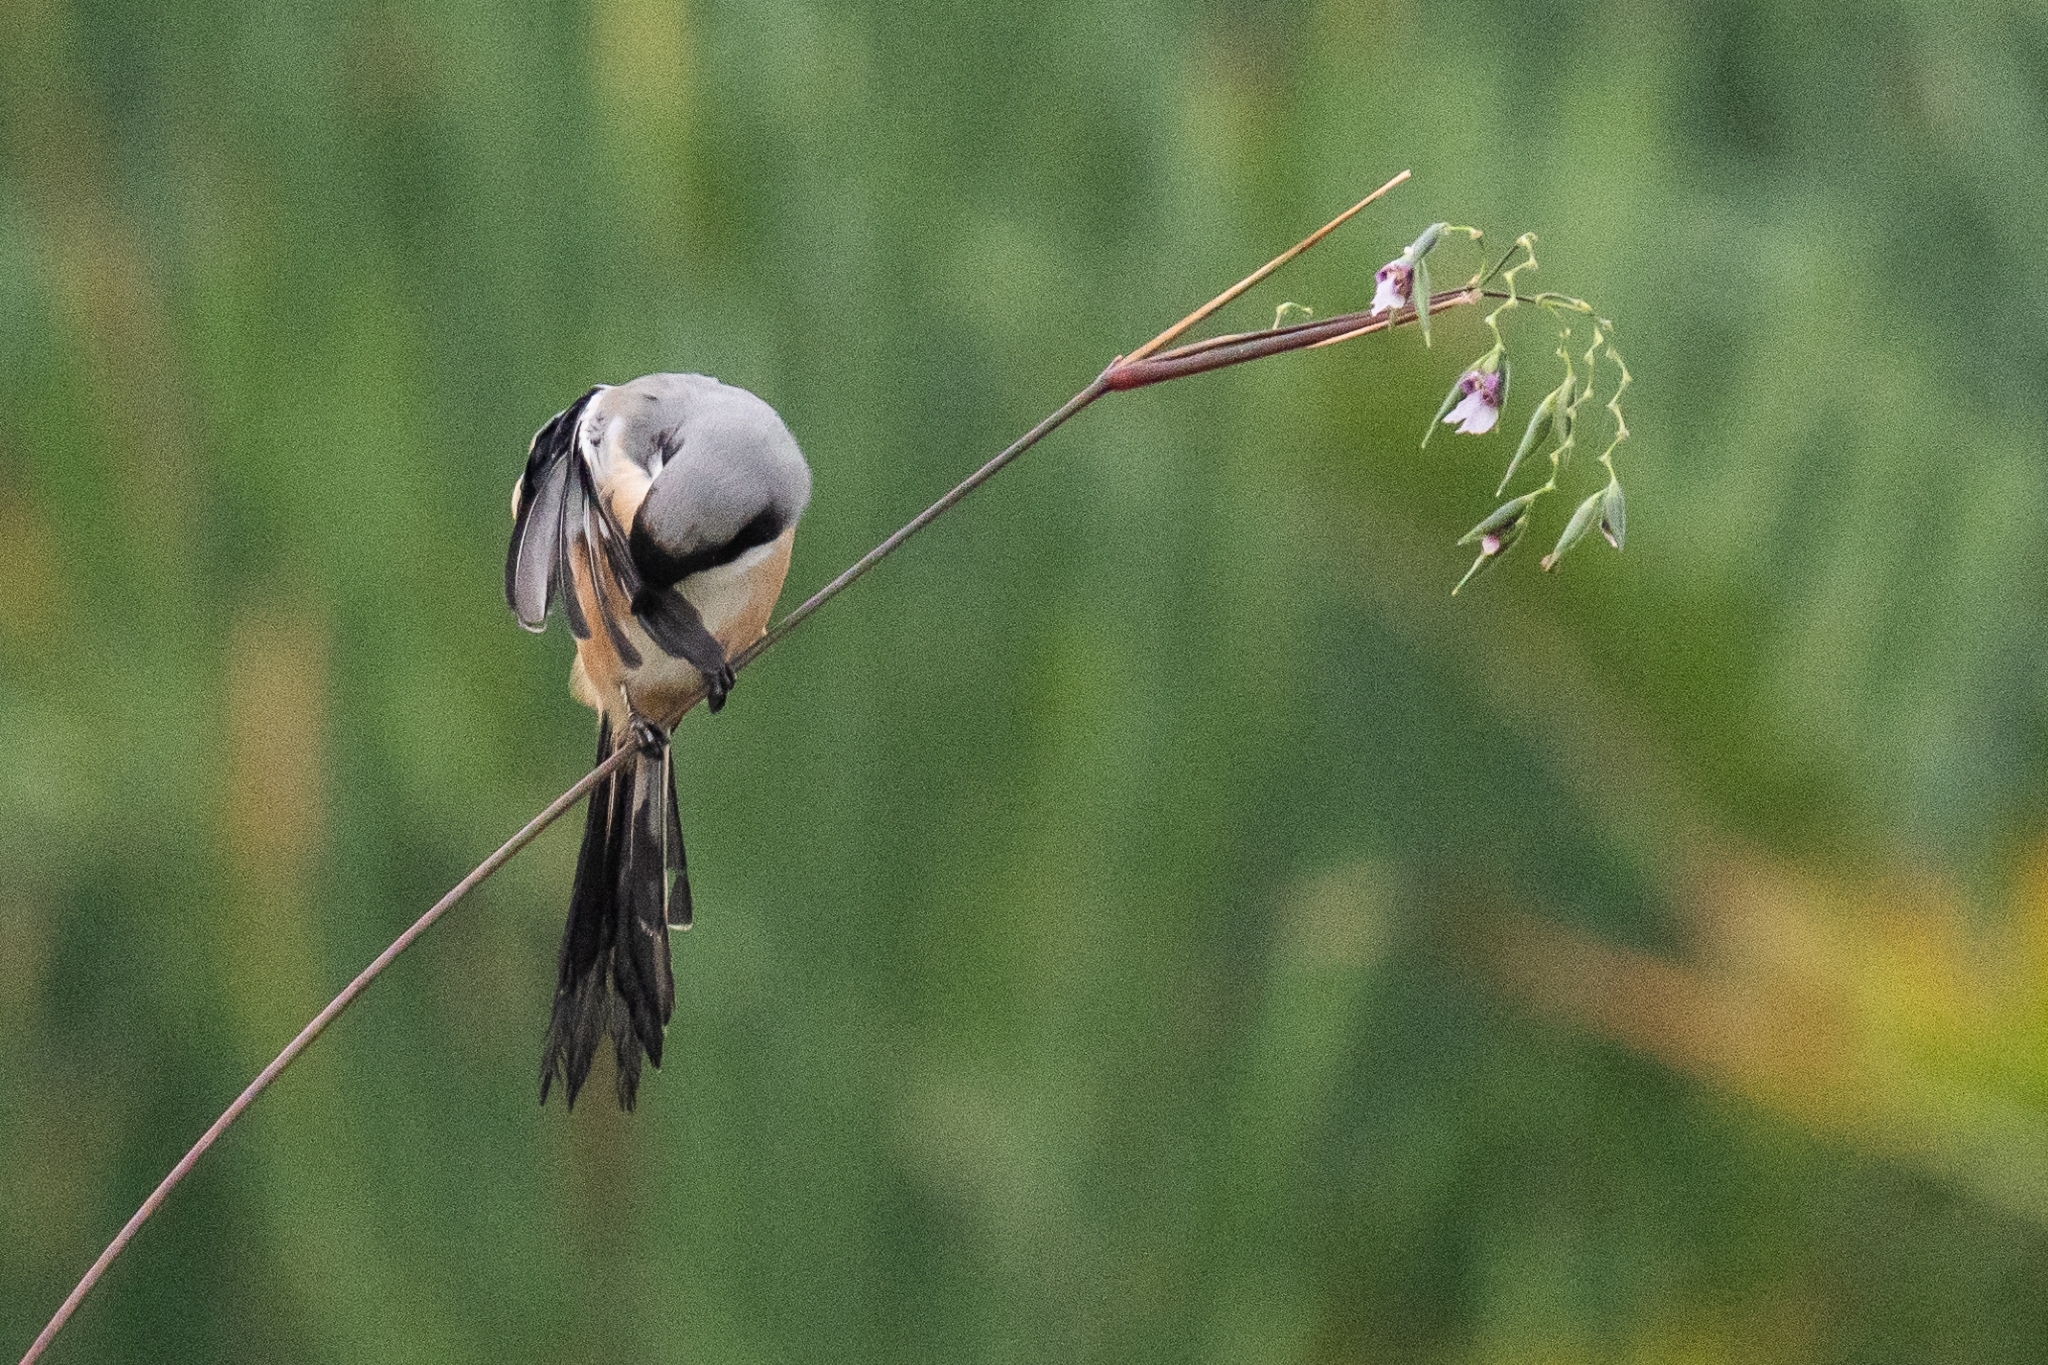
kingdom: Animalia
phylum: Chordata
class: Aves
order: Passeriformes
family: Laniidae
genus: Lanius
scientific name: Lanius schach
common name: Long-tailed shrike
